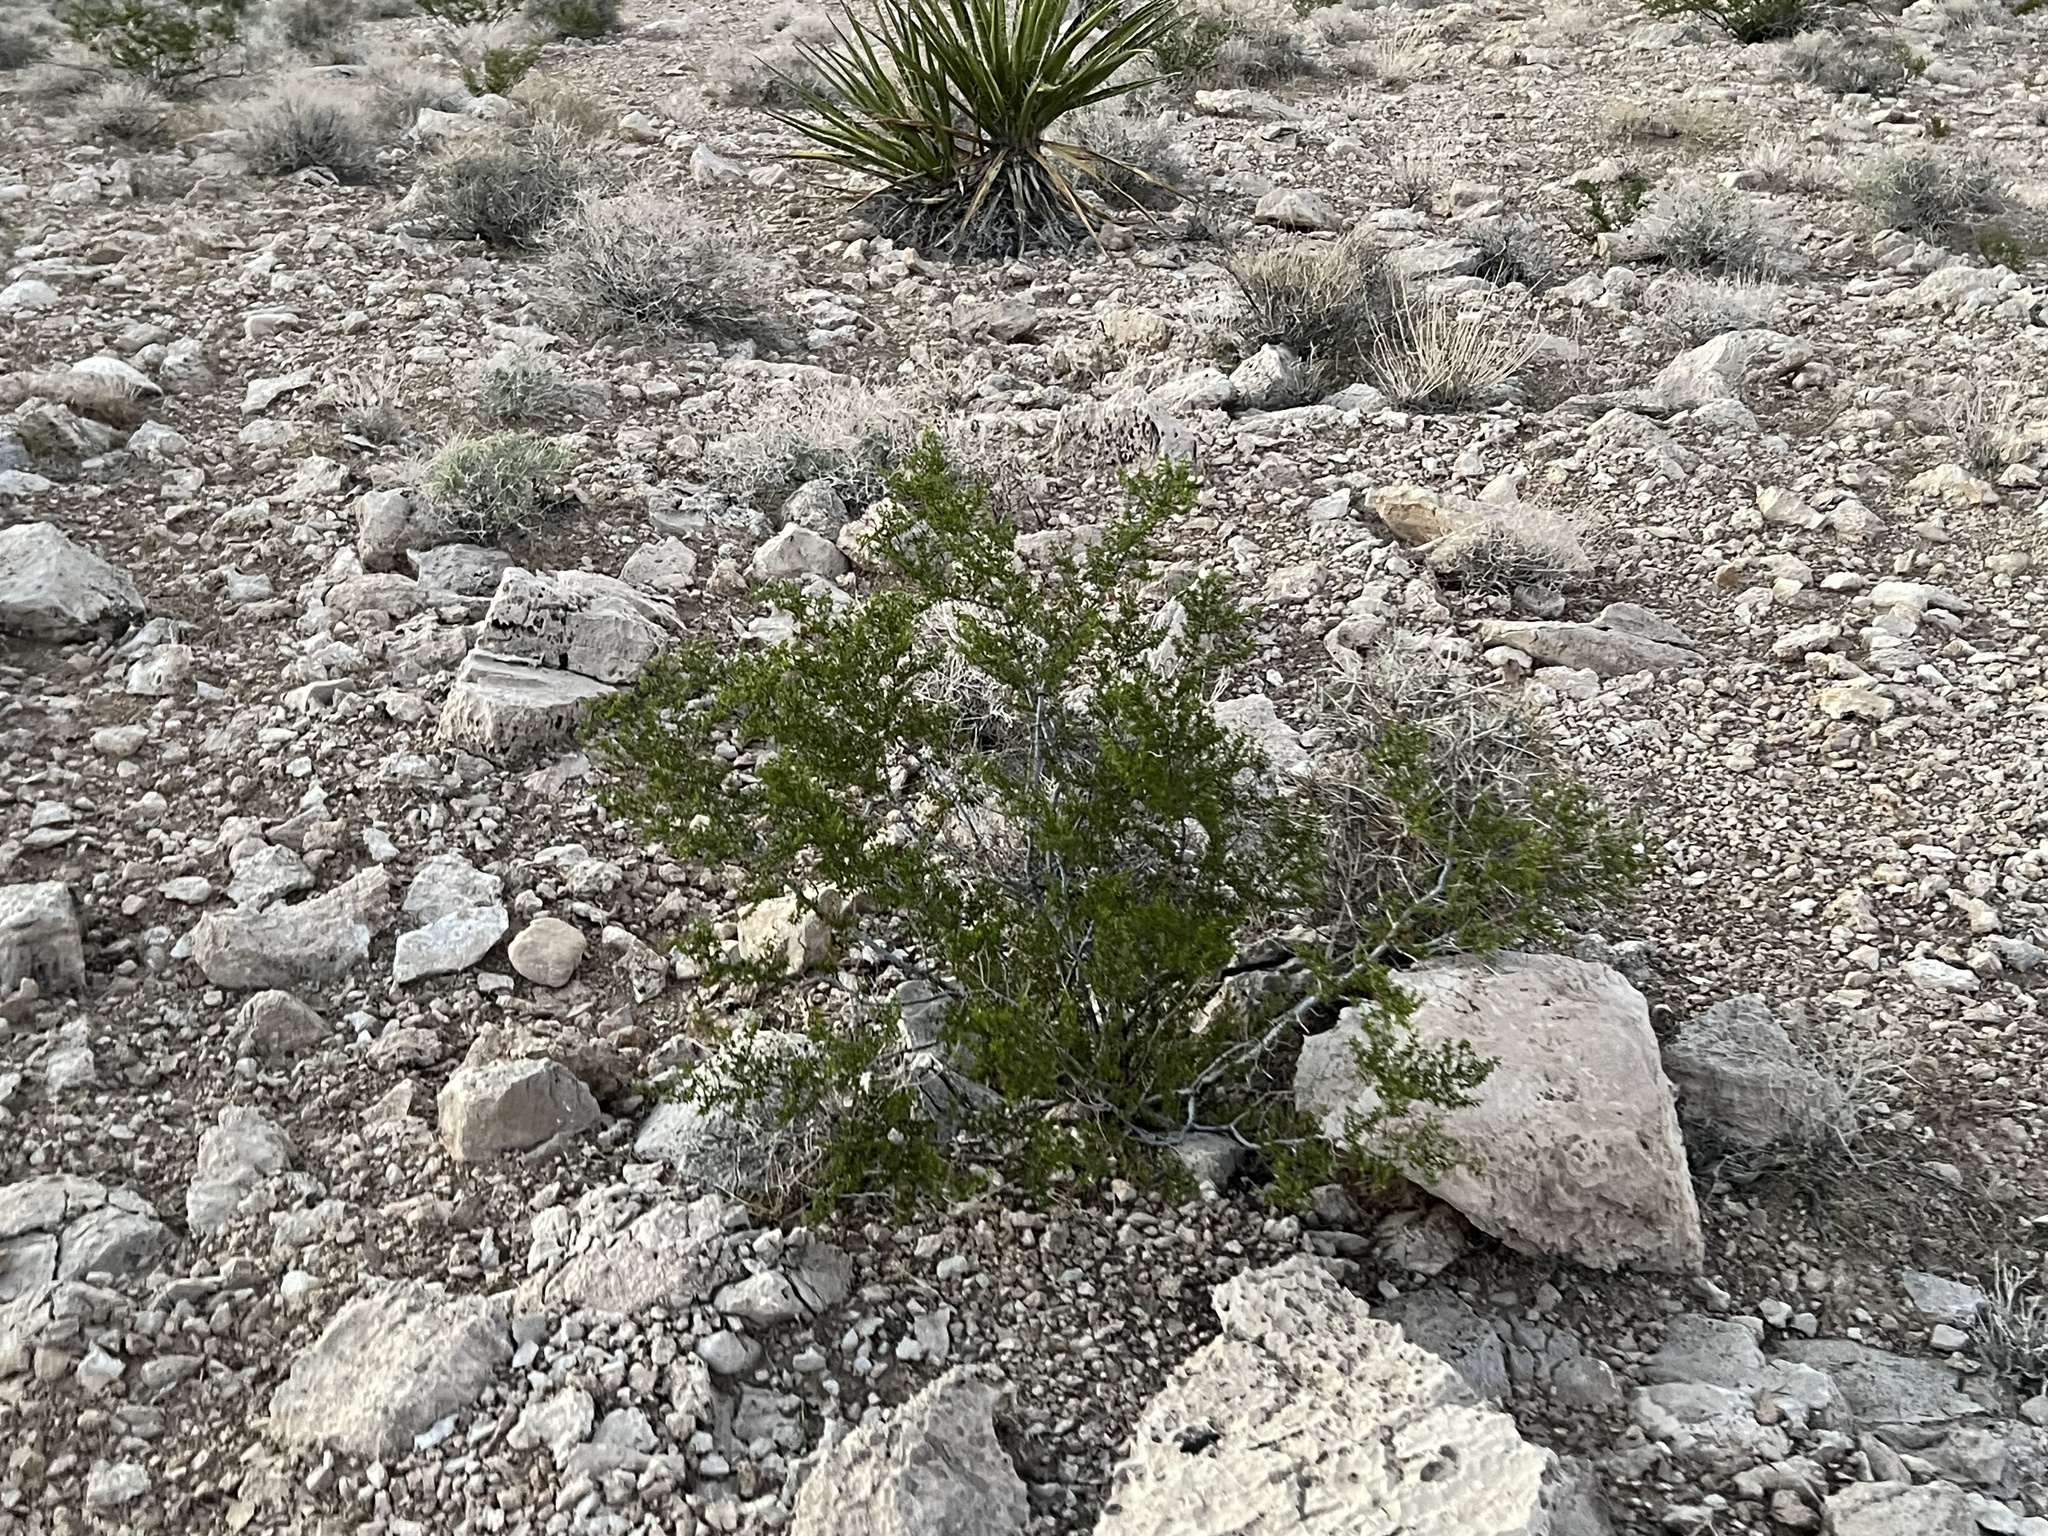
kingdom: Plantae
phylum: Tracheophyta
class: Magnoliopsida
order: Zygophyllales
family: Zygophyllaceae
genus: Larrea
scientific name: Larrea tridentata
